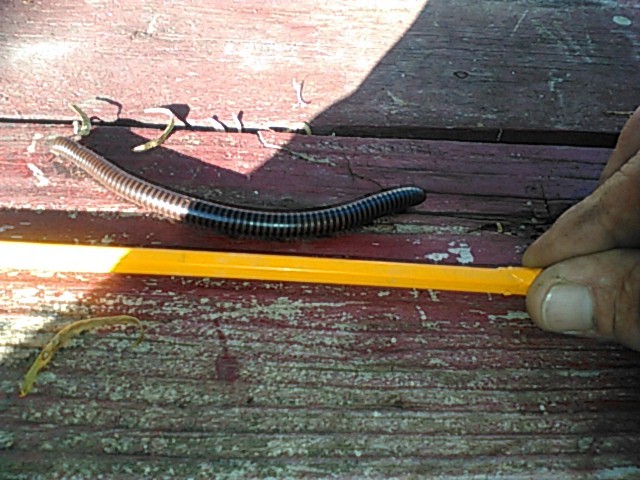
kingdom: Animalia
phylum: Arthropoda
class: Diplopoda
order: Spirostreptida
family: Spirostreptidae
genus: Orthoporus
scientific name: Orthoporus texicolens
